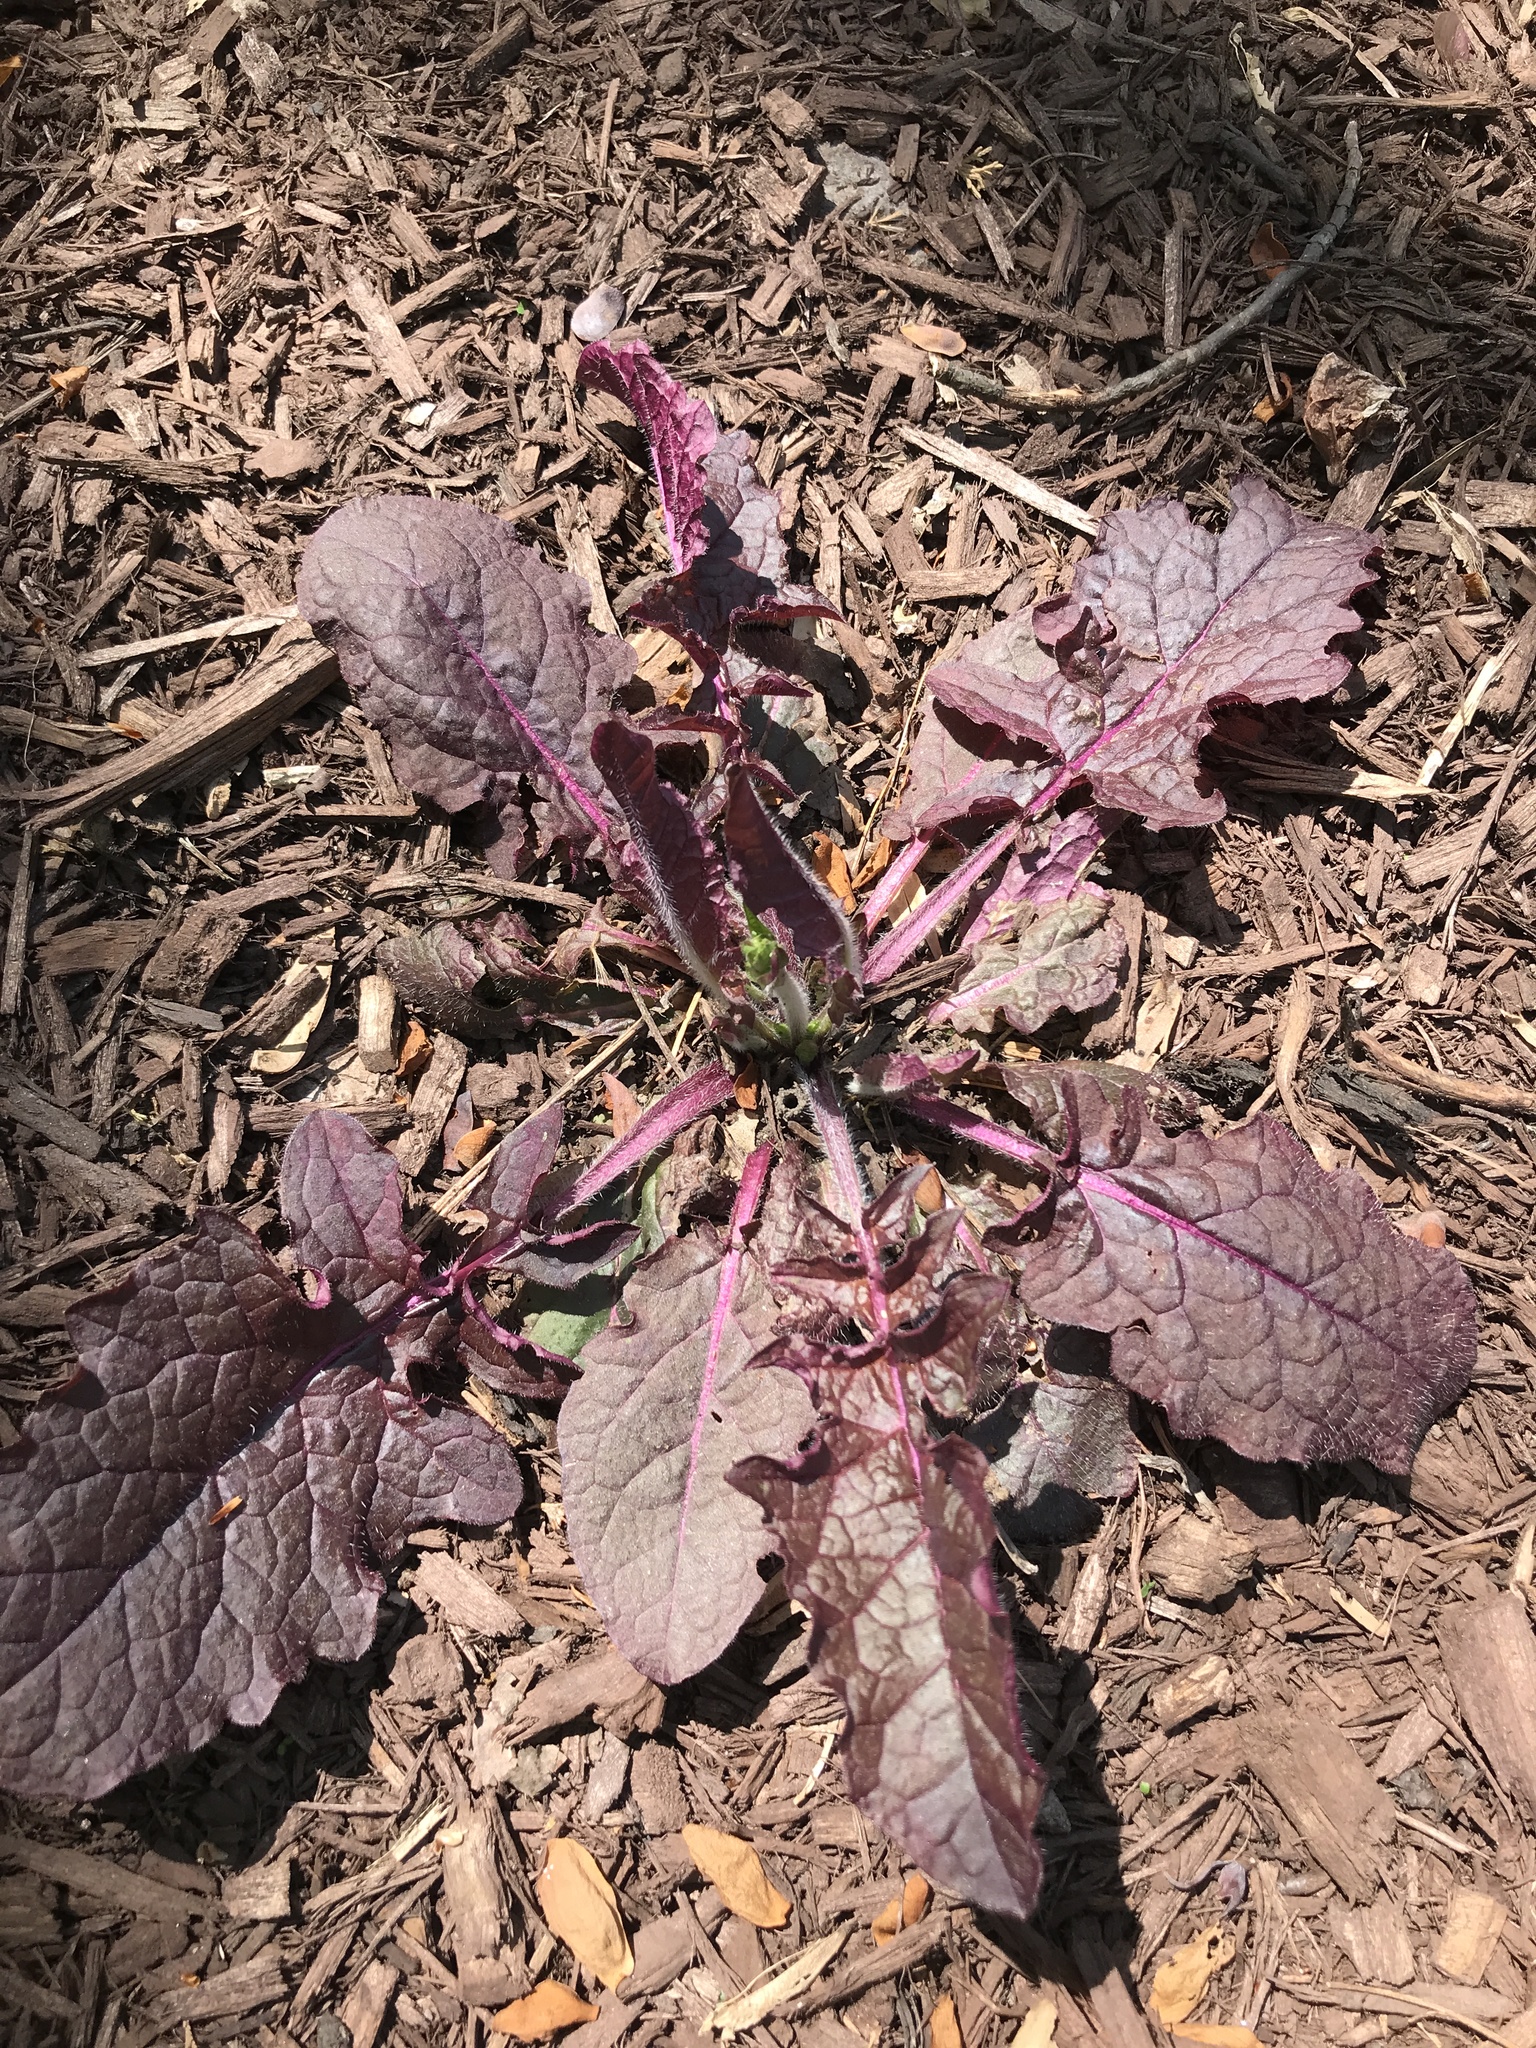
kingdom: Plantae
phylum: Tracheophyta
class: Magnoliopsida
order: Lamiales
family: Lamiaceae
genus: Salvia
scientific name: Salvia lyrata
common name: Cancerweed
